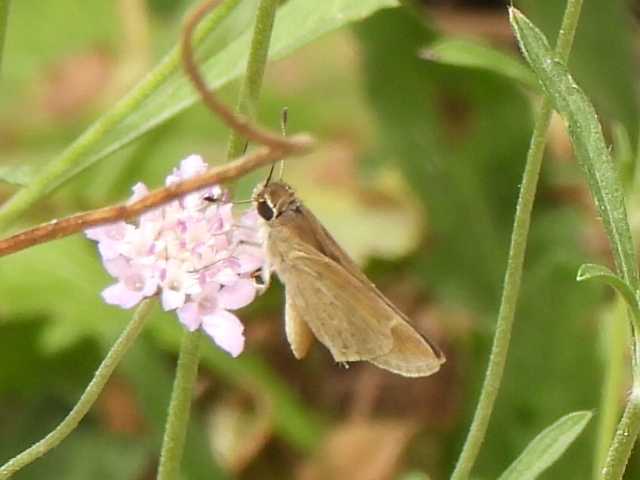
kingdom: Animalia
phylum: Arthropoda
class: Insecta
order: Lepidoptera
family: Hesperiidae
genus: Lerodea
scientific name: Lerodea eufala
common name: Eufala skipper
